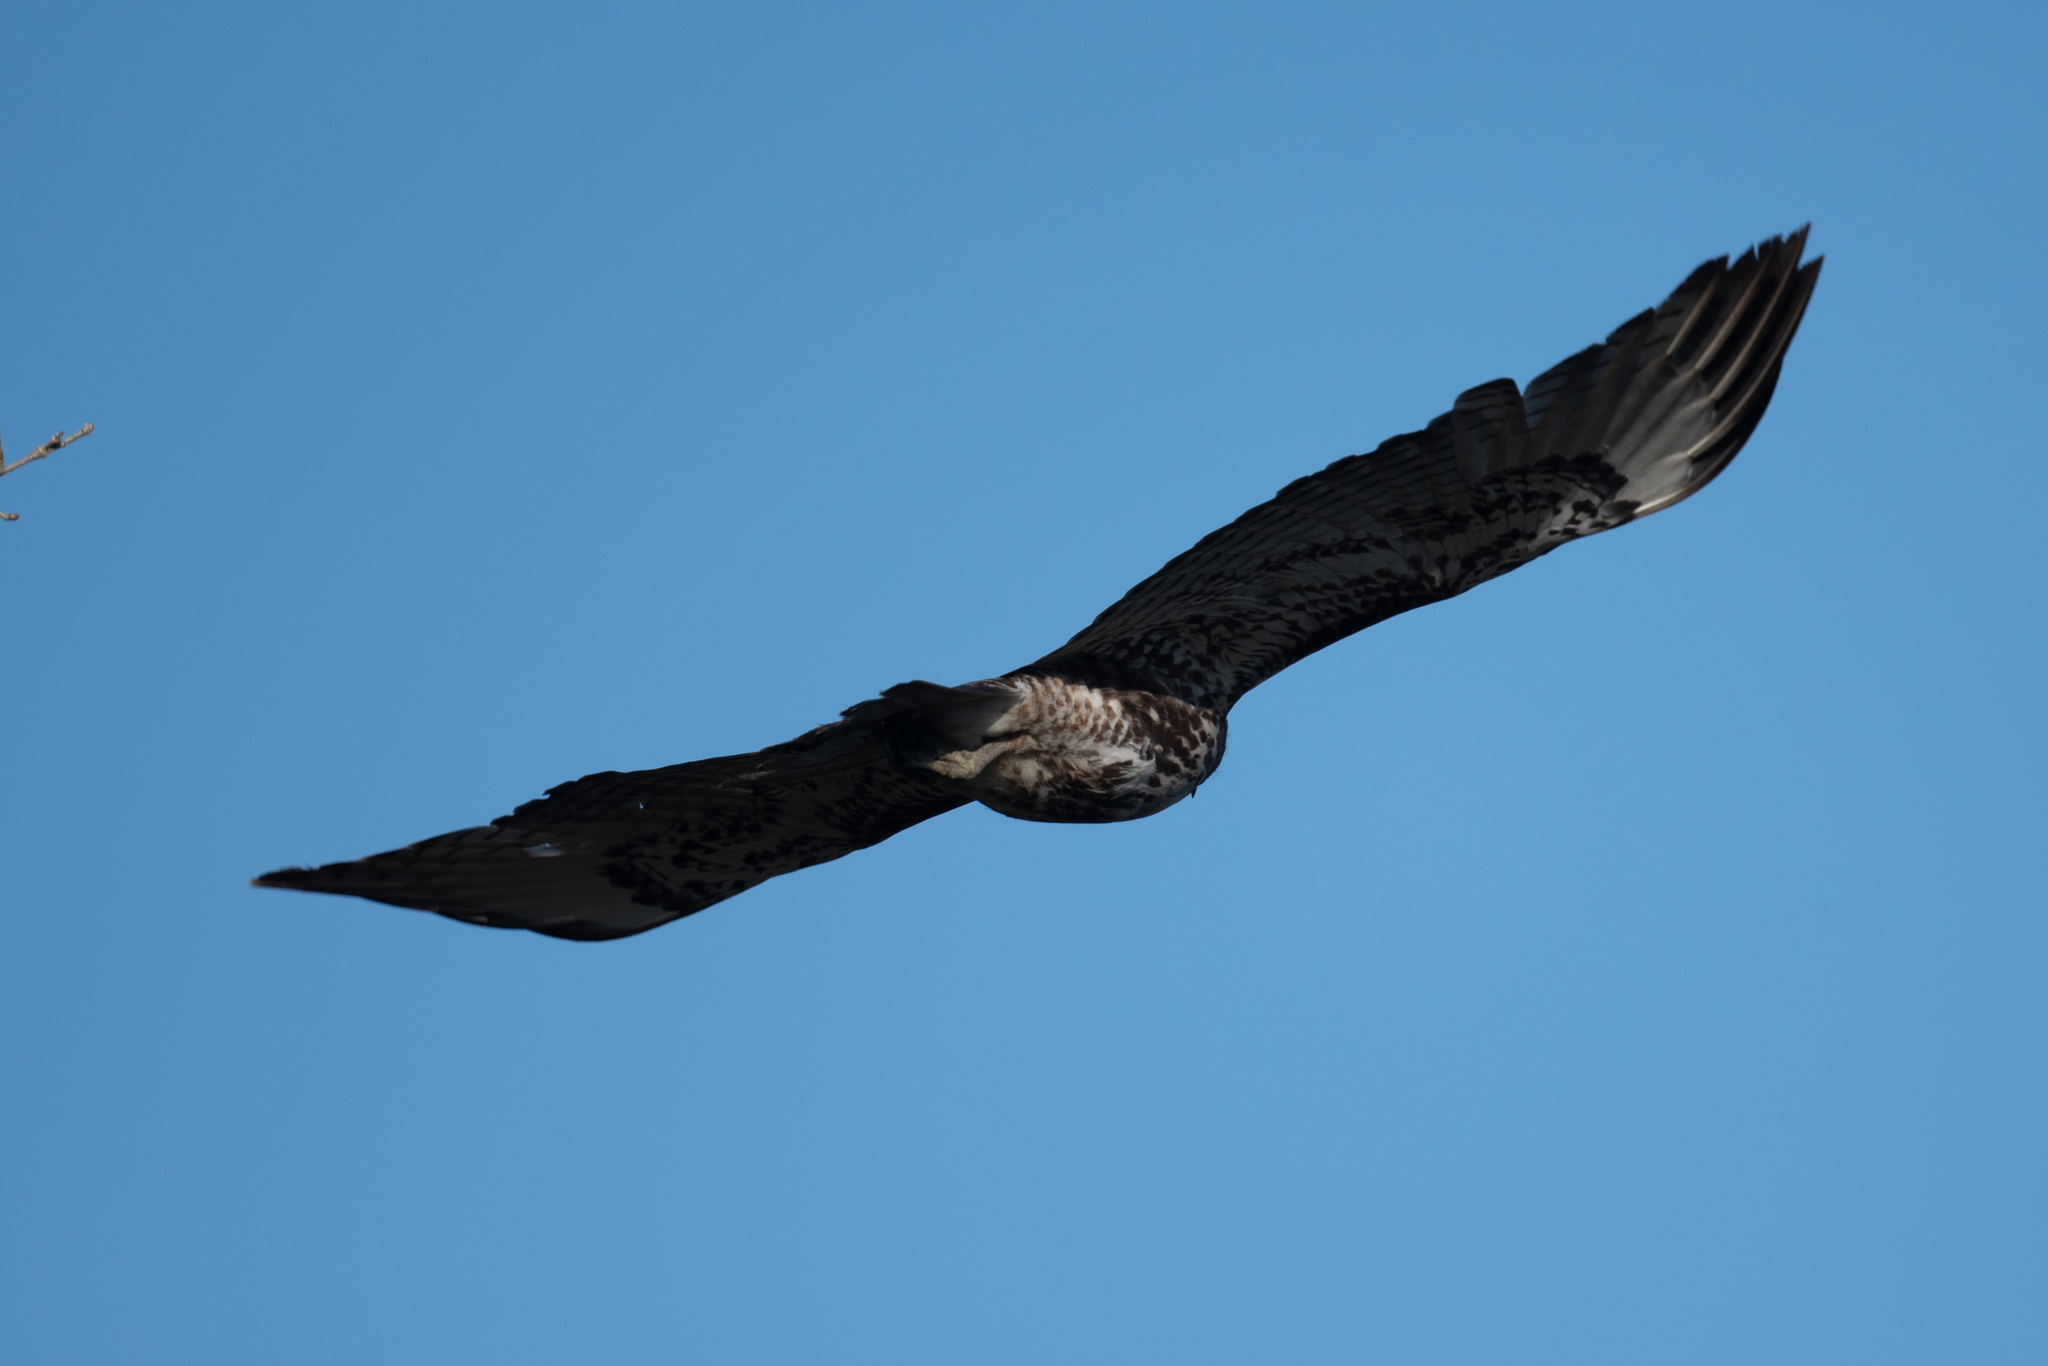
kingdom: Animalia
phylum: Chordata
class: Aves
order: Accipitriformes
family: Accipitridae
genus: Buteo
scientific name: Buteo jamaicensis
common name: Red-tailed hawk
